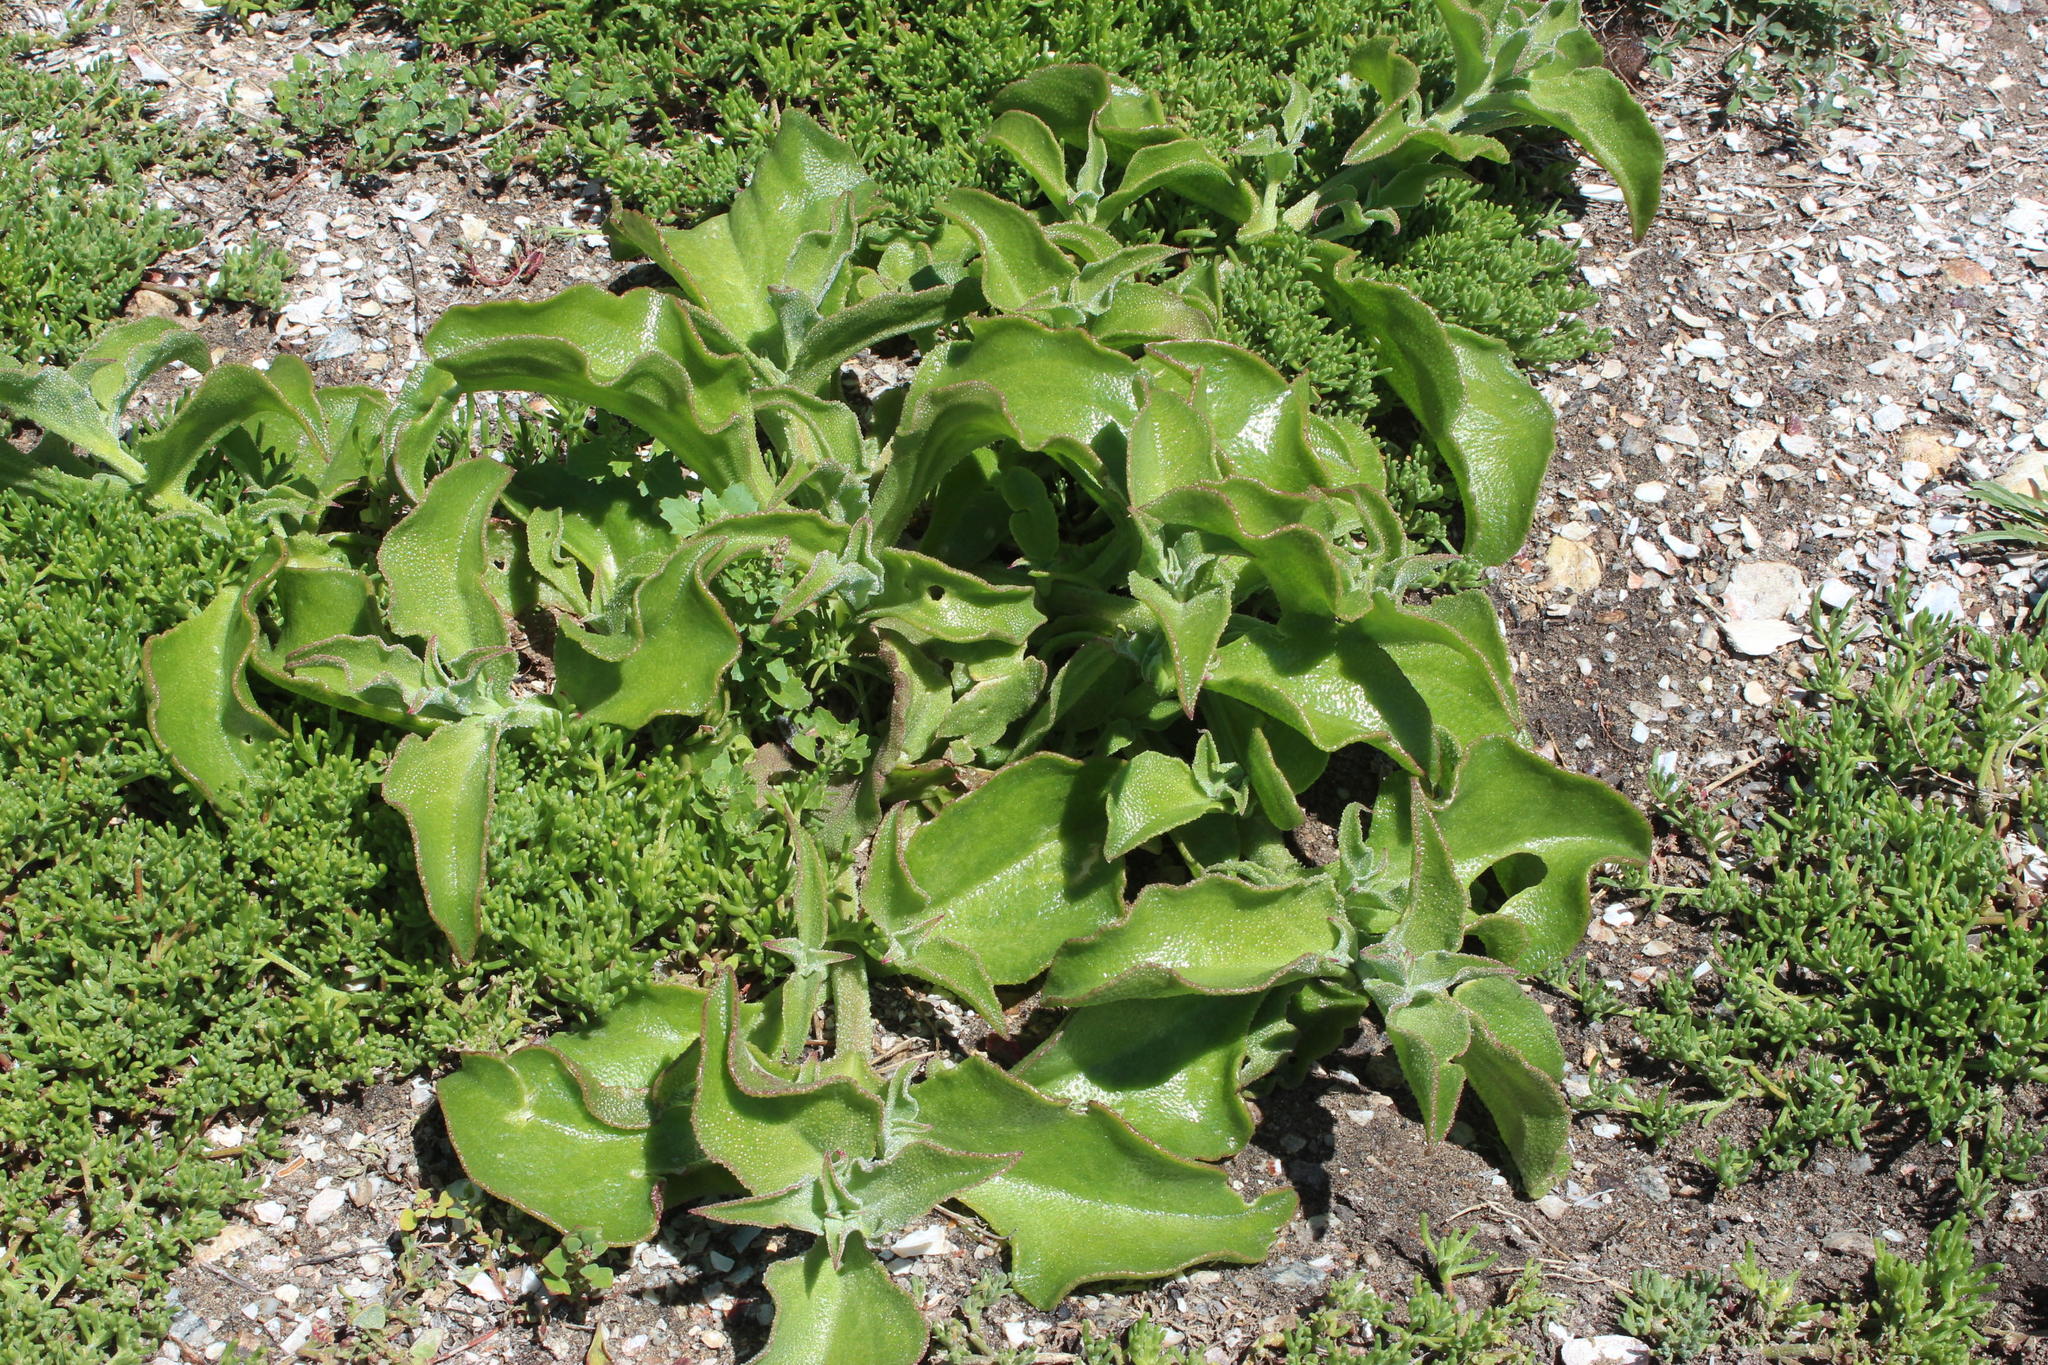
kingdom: Plantae
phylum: Tracheophyta
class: Magnoliopsida
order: Caryophyllales
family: Aizoaceae
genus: Mesembryanthemum
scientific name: Mesembryanthemum guerichianum
